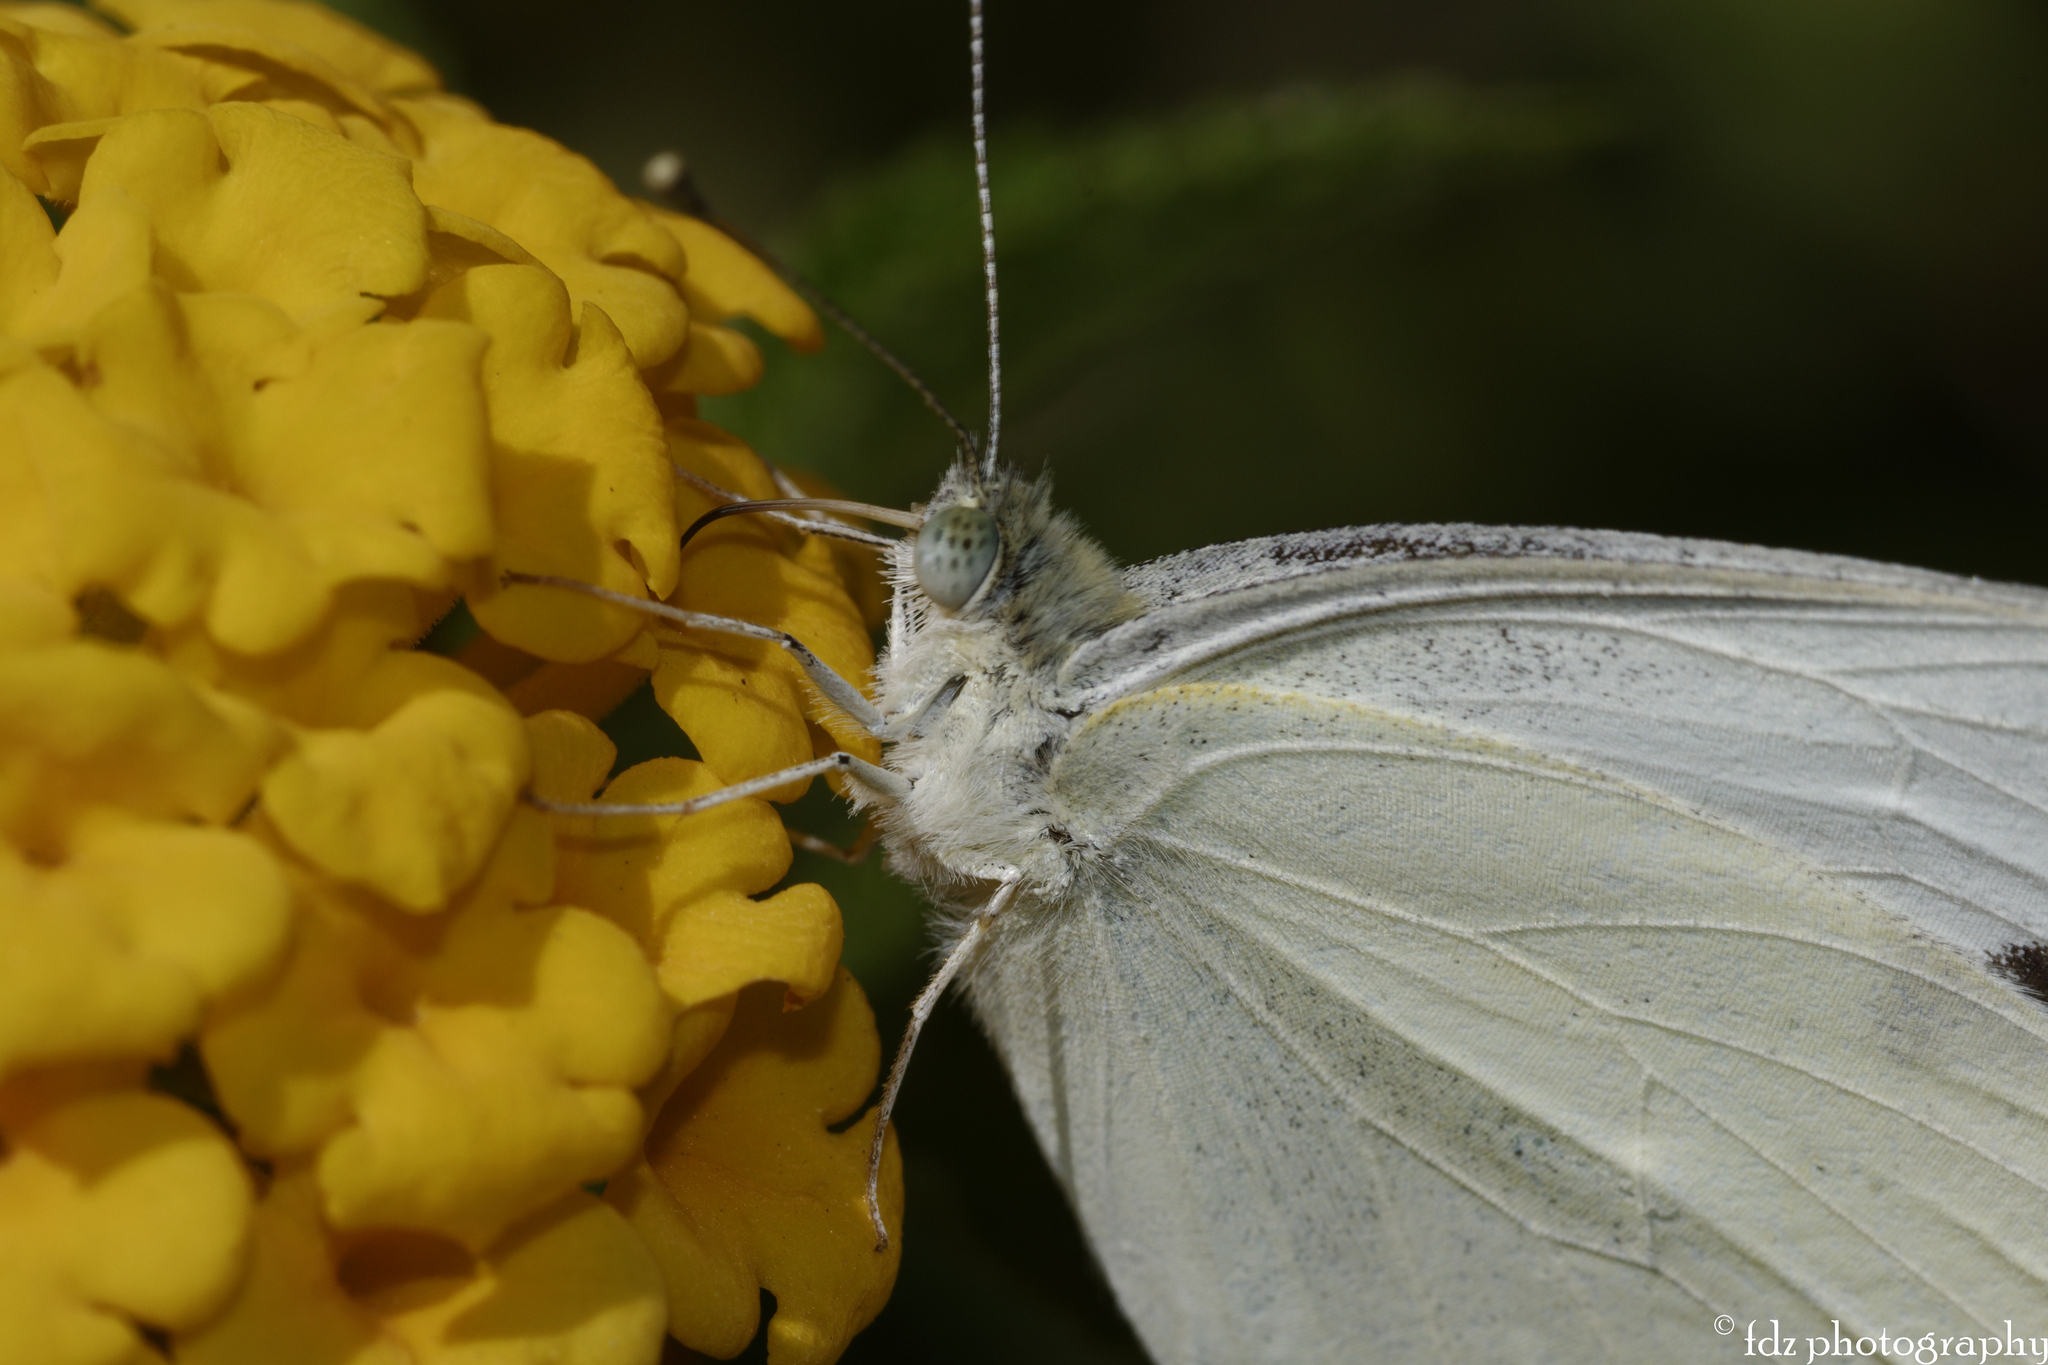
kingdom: Animalia
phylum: Arthropoda
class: Insecta
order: Lepidoptera
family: Pieridae
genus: Pieris
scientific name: Pieris rapae
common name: Small white
